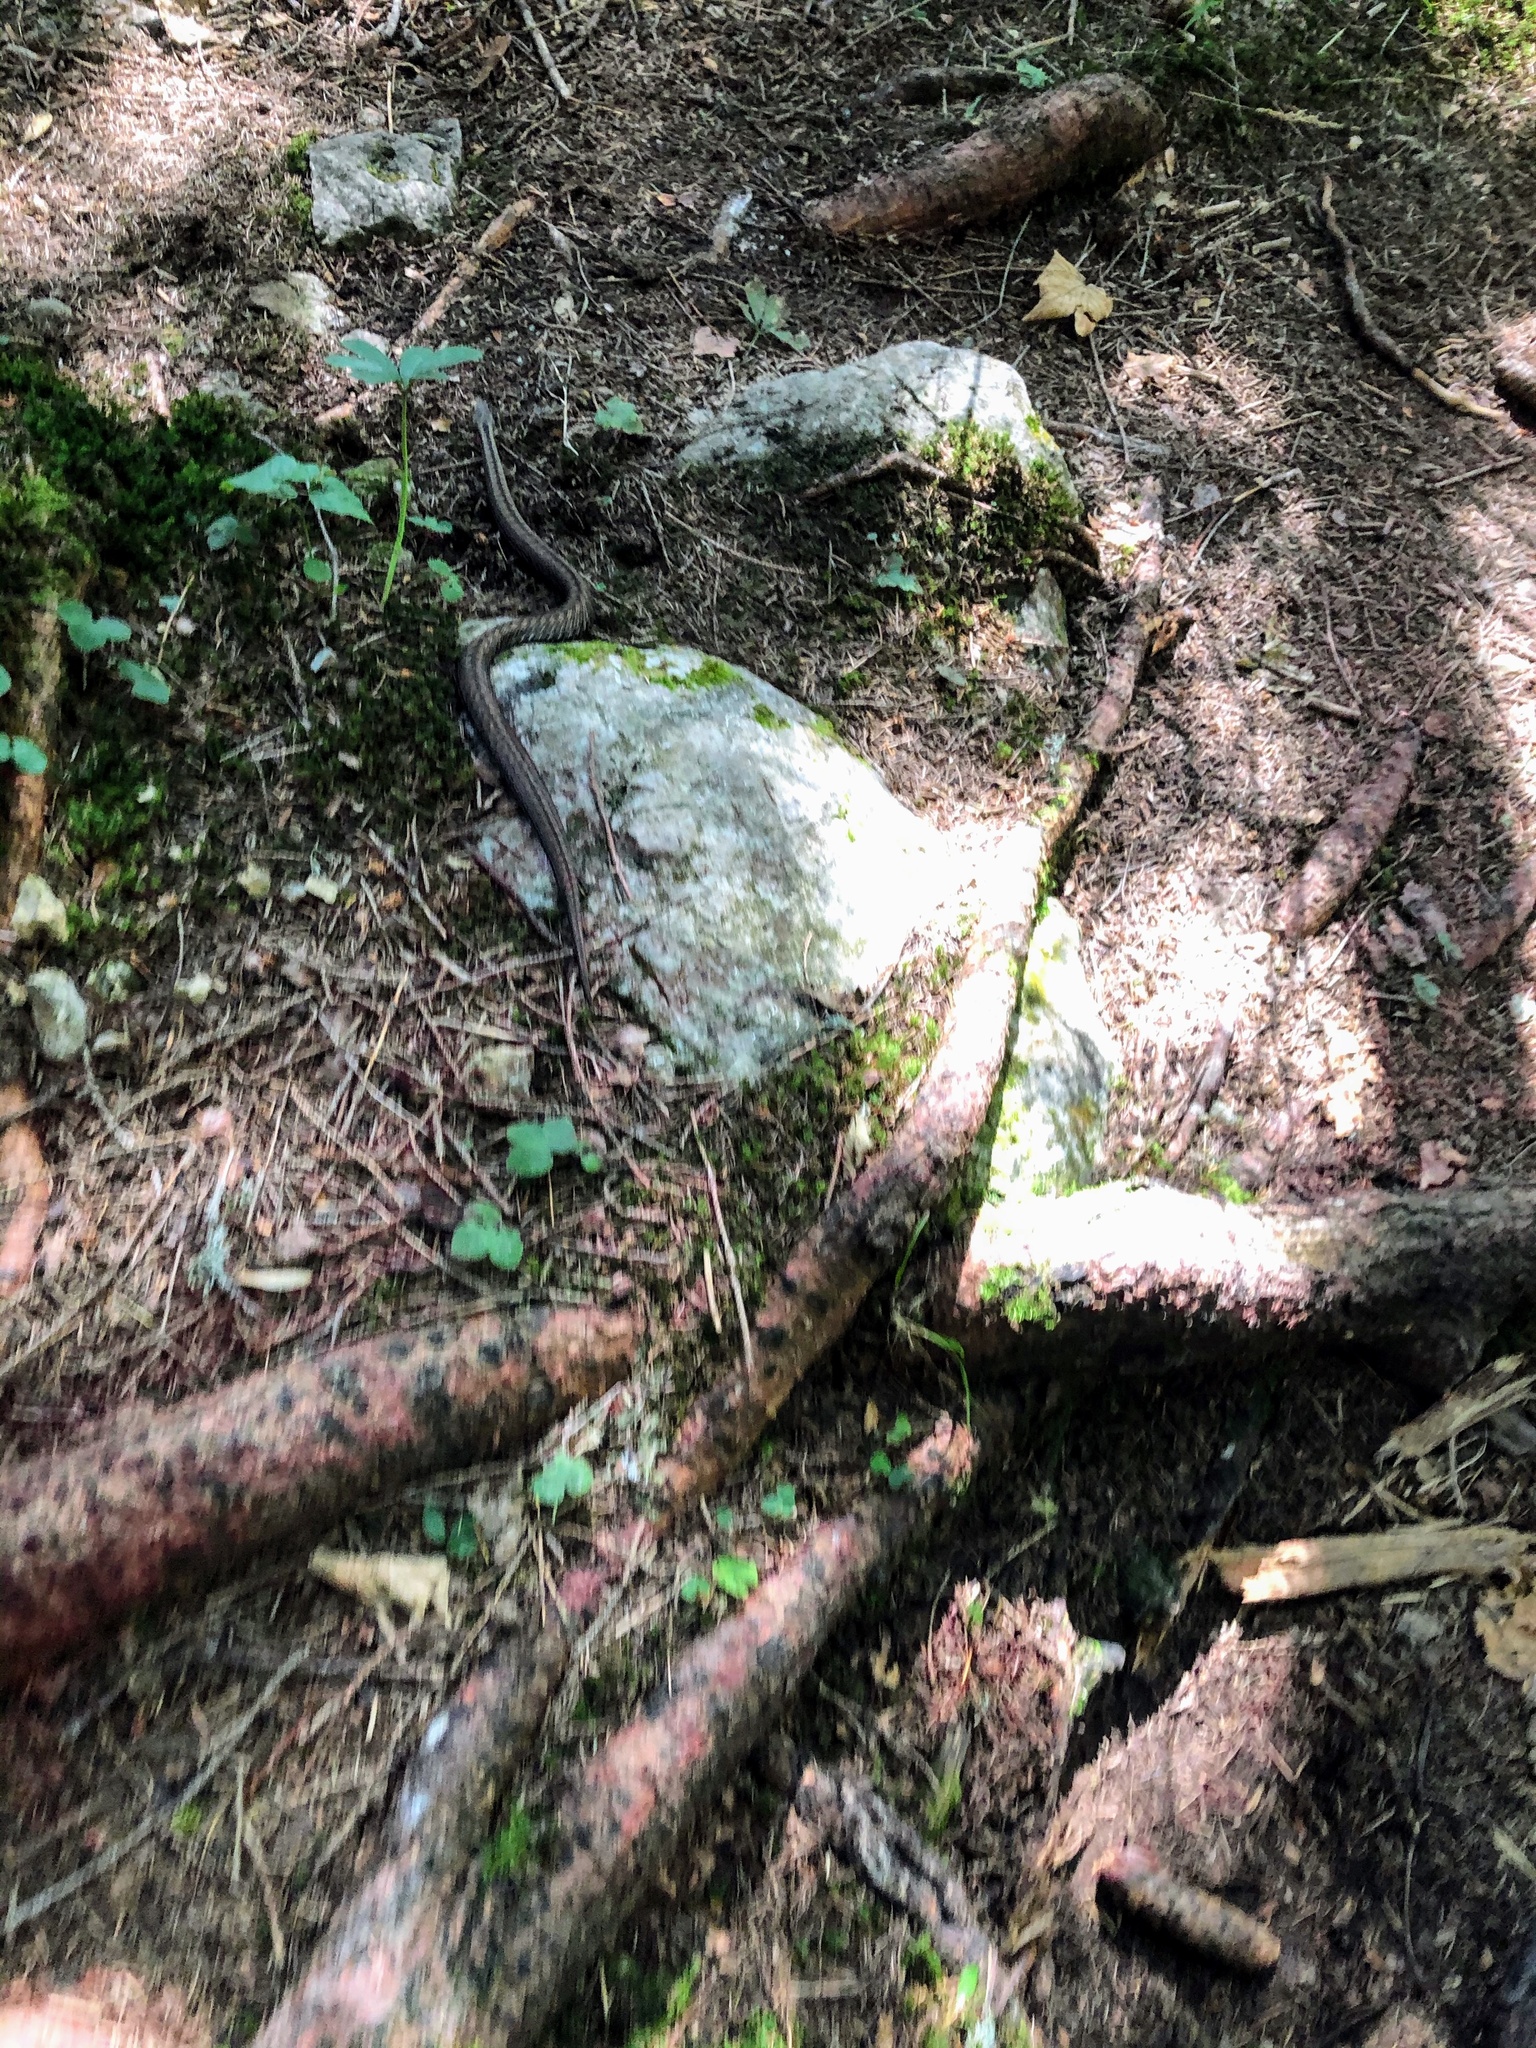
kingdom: Animalia
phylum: Chordata
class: Squamata
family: Viperidae
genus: Vipera
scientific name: Vipera berus
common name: Adder
